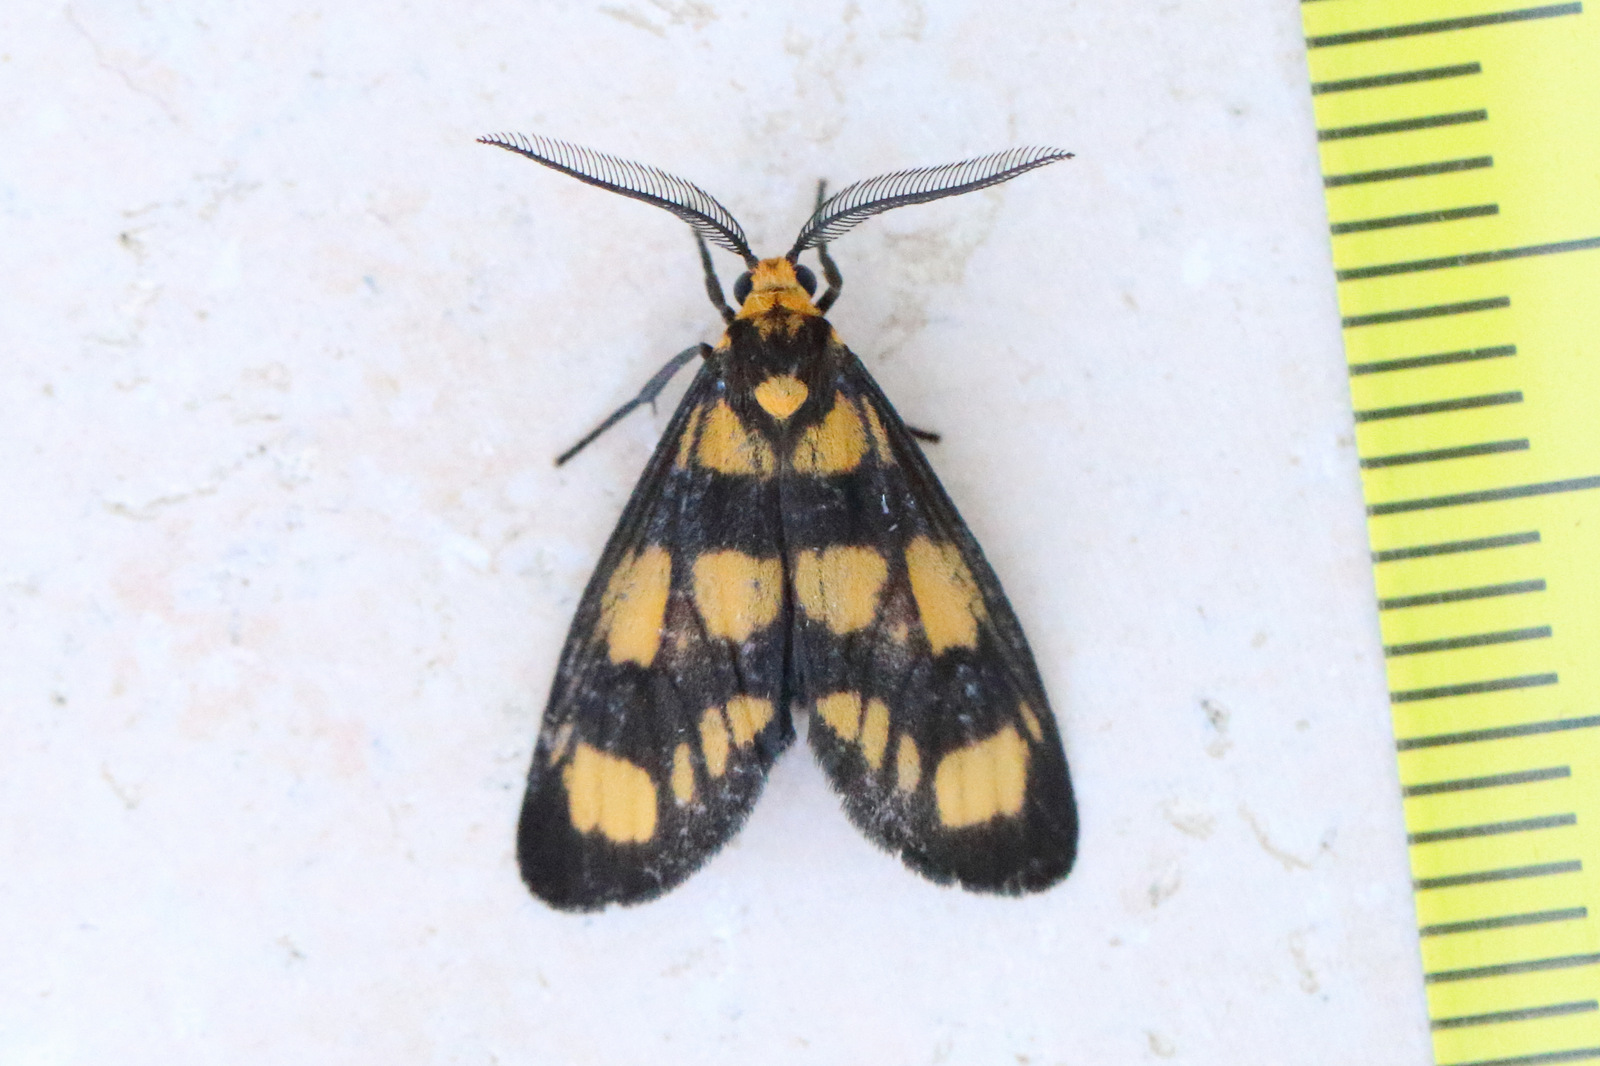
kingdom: Animalia
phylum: Arthropoda
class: Insecta
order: Lepidoptera
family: Erebidae
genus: Asura
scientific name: Asura bipars
